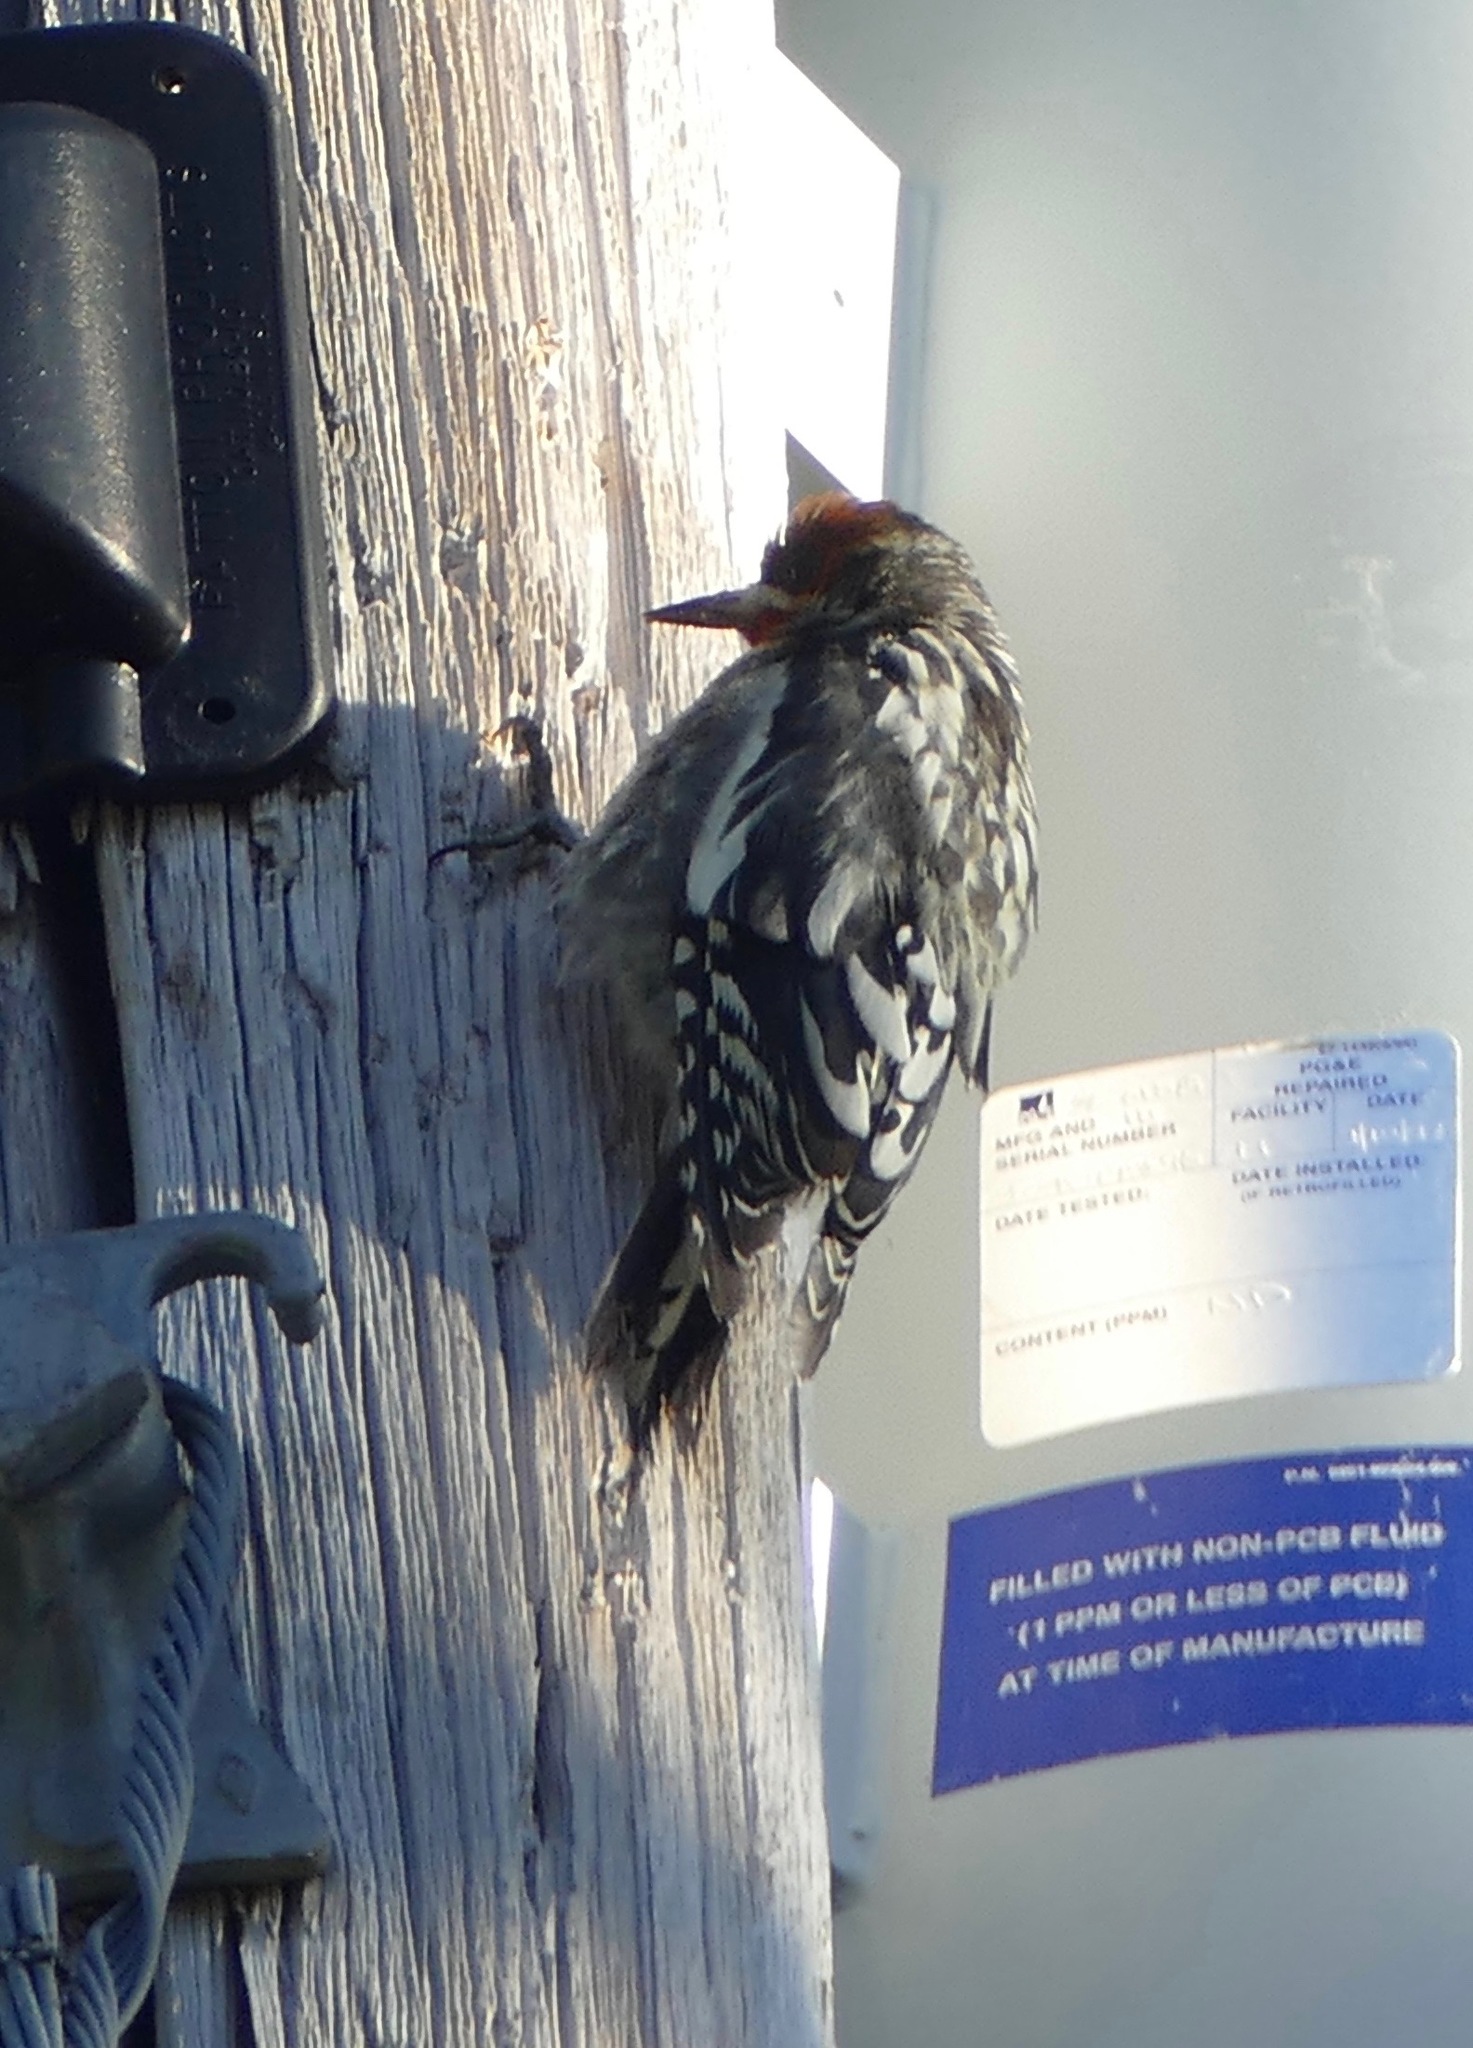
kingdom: Animalia
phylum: Chordata
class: Aves
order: Piciformes
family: Picidae
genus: Sphyrapicus
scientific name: Sphyrapicus ruber
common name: Red-breasted sapsucker
